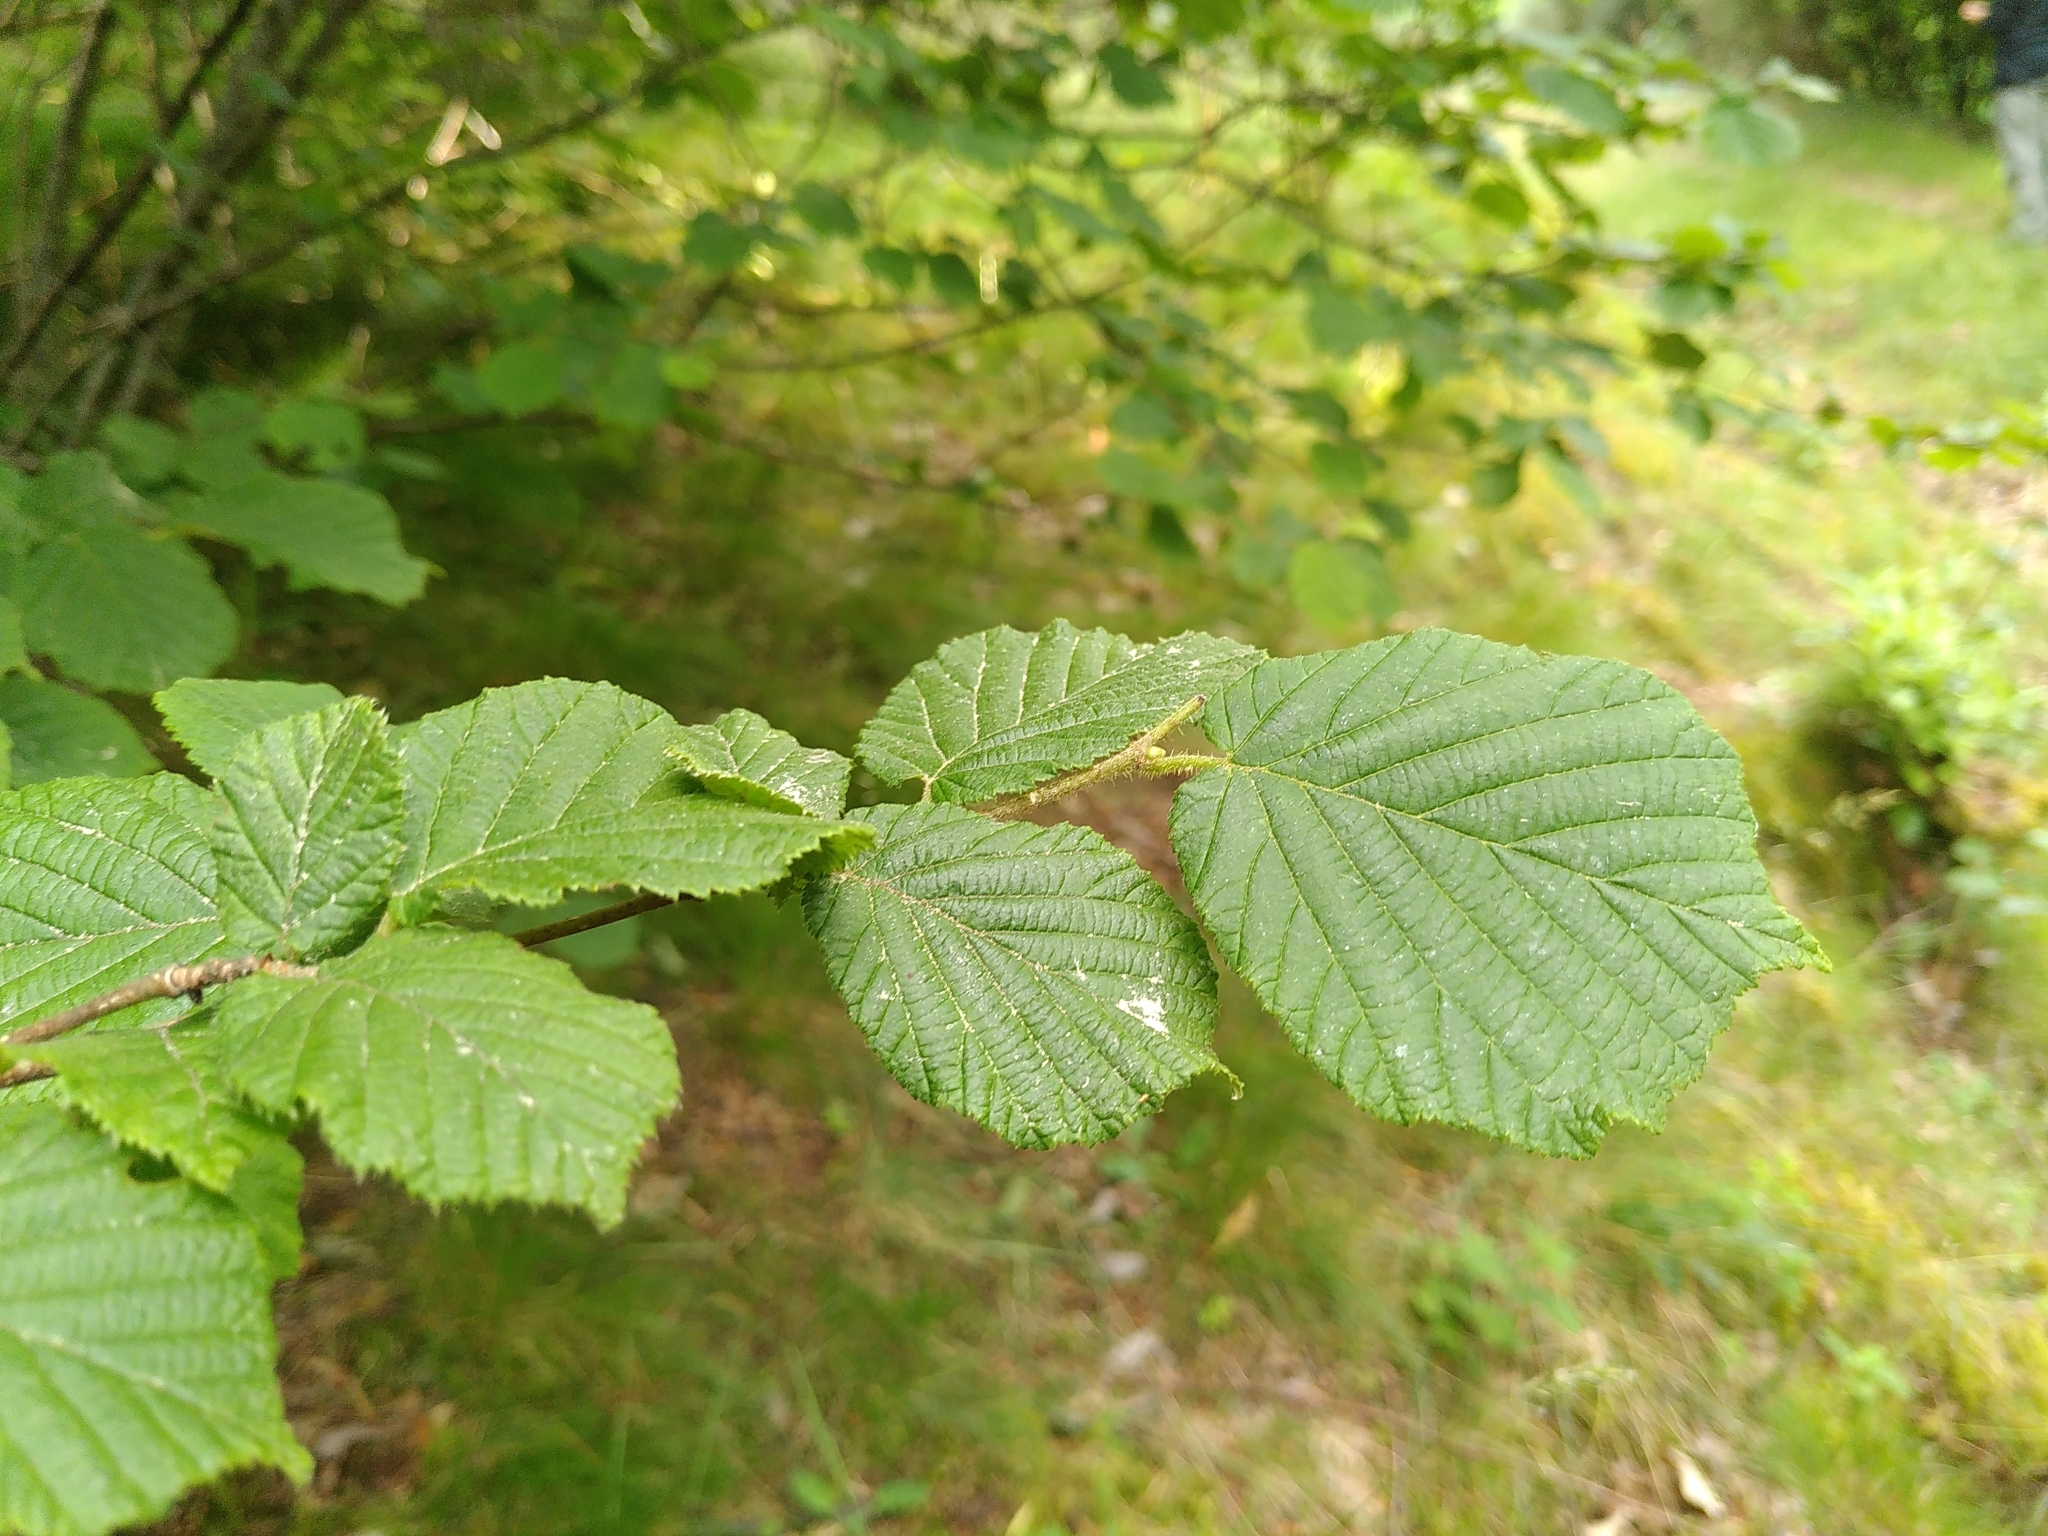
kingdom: Plantae
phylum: Tracheophyta
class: Magnoliopsida
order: Fagales
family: Betulaceae
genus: Corylus
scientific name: Corylus avellana
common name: European hazel
